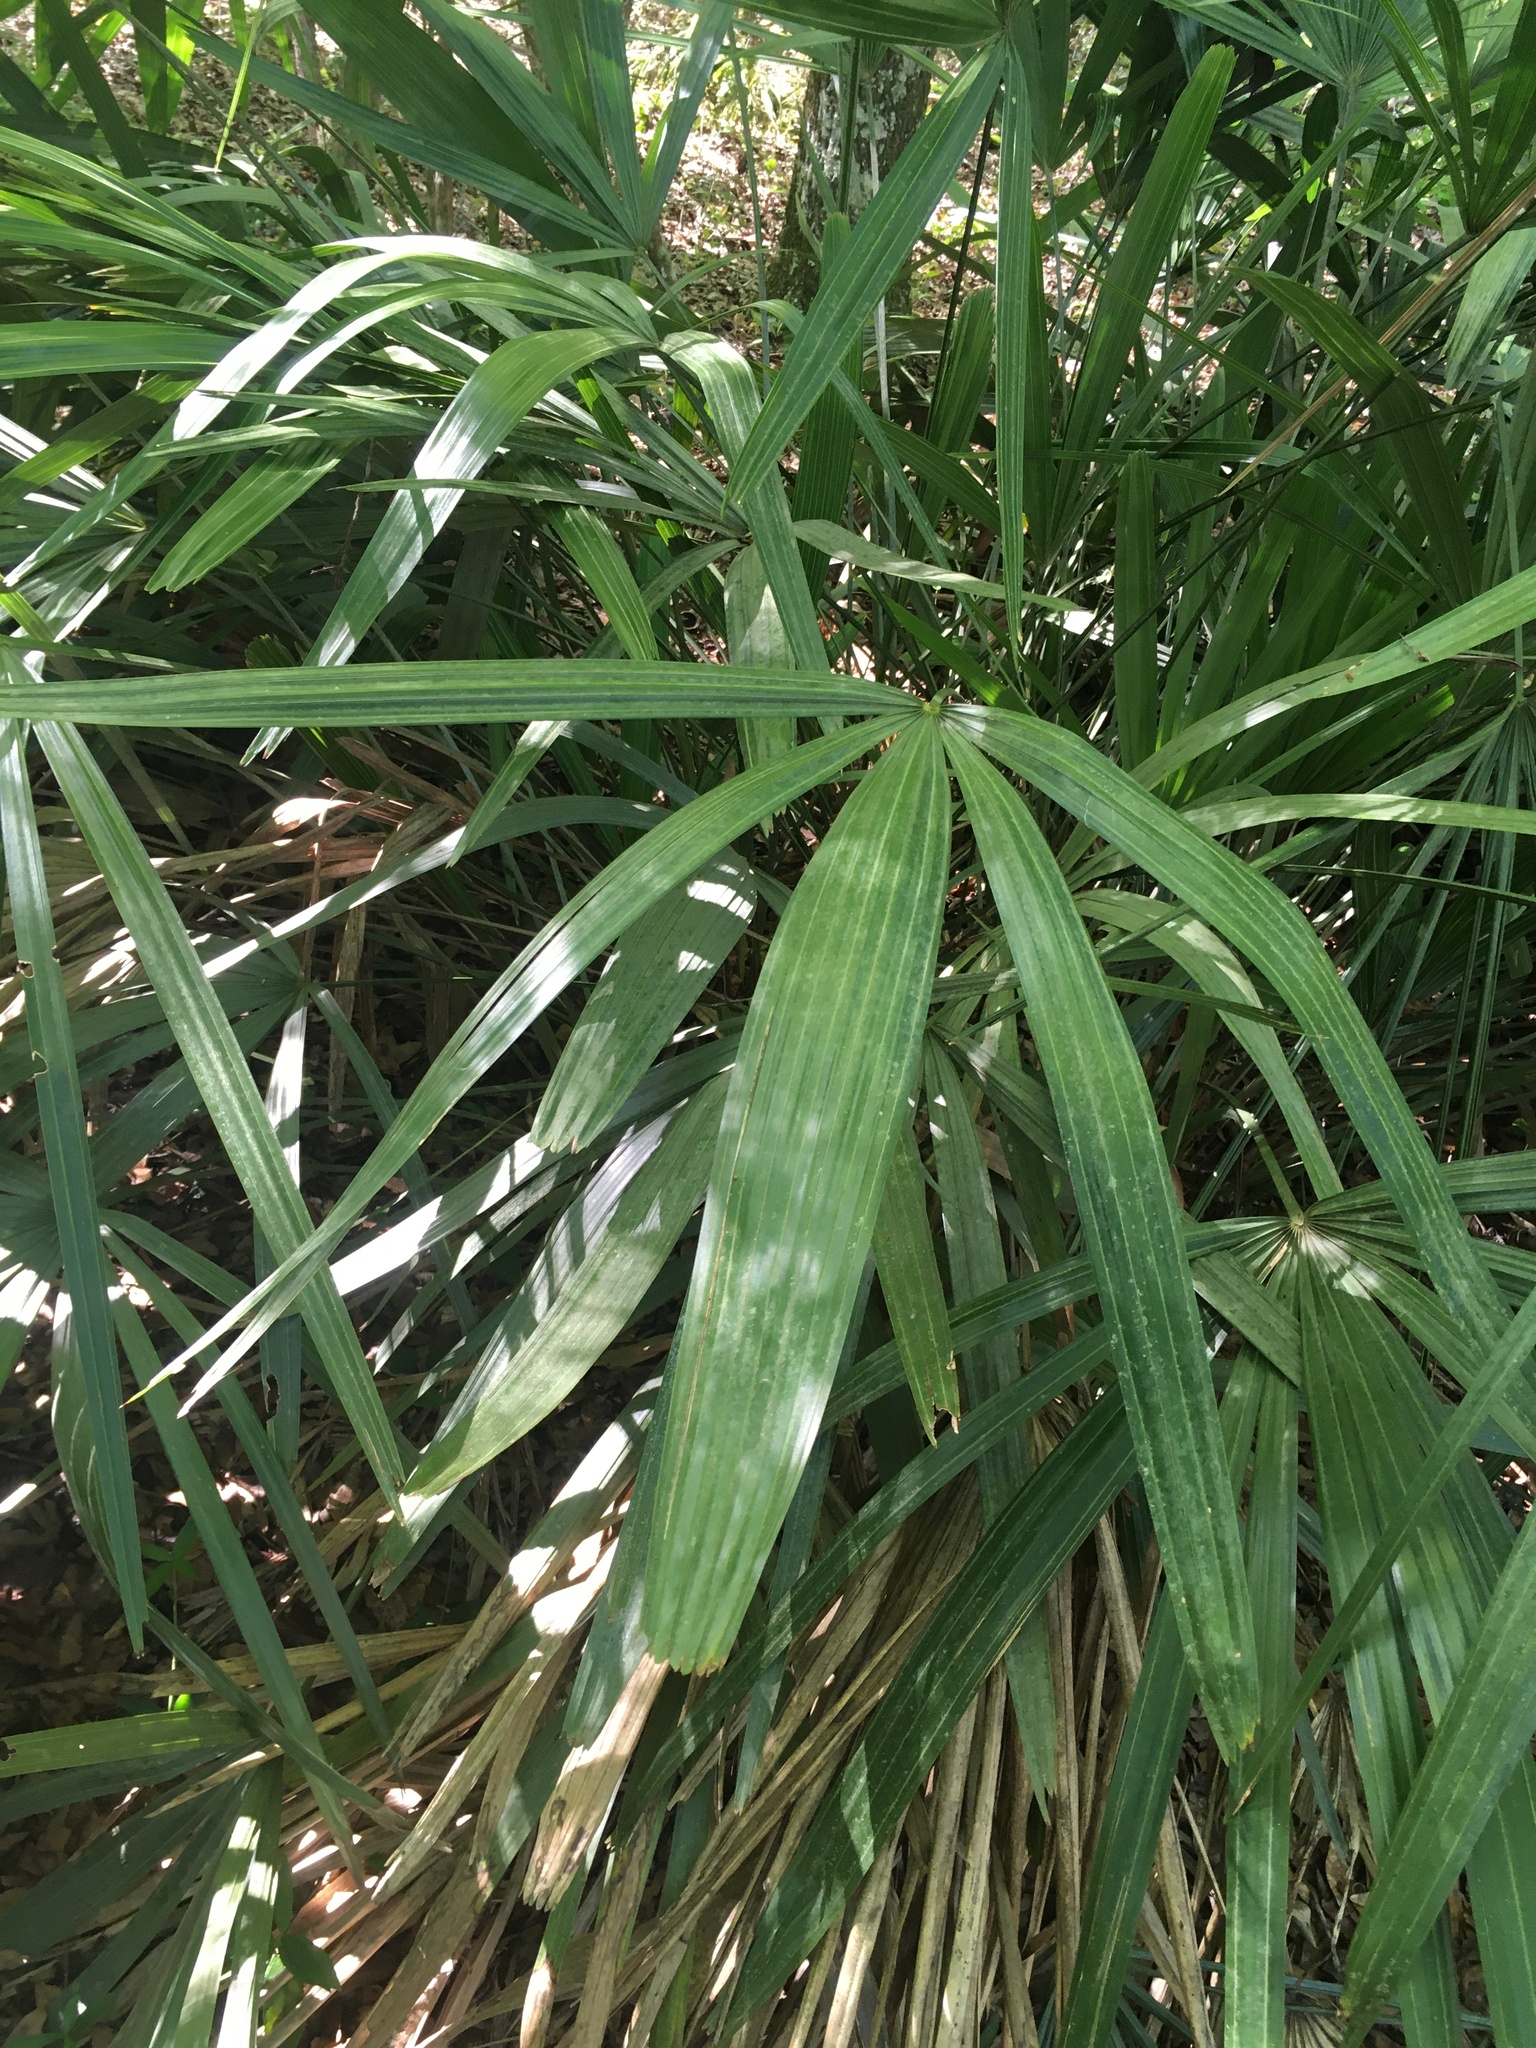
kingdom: Plantae
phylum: Tracheophyta
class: Liliopsida
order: Arecales
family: Arecaceae
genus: Rhapidophyllum
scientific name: Rhapidophyllum hystrix
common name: Porcupine palm
